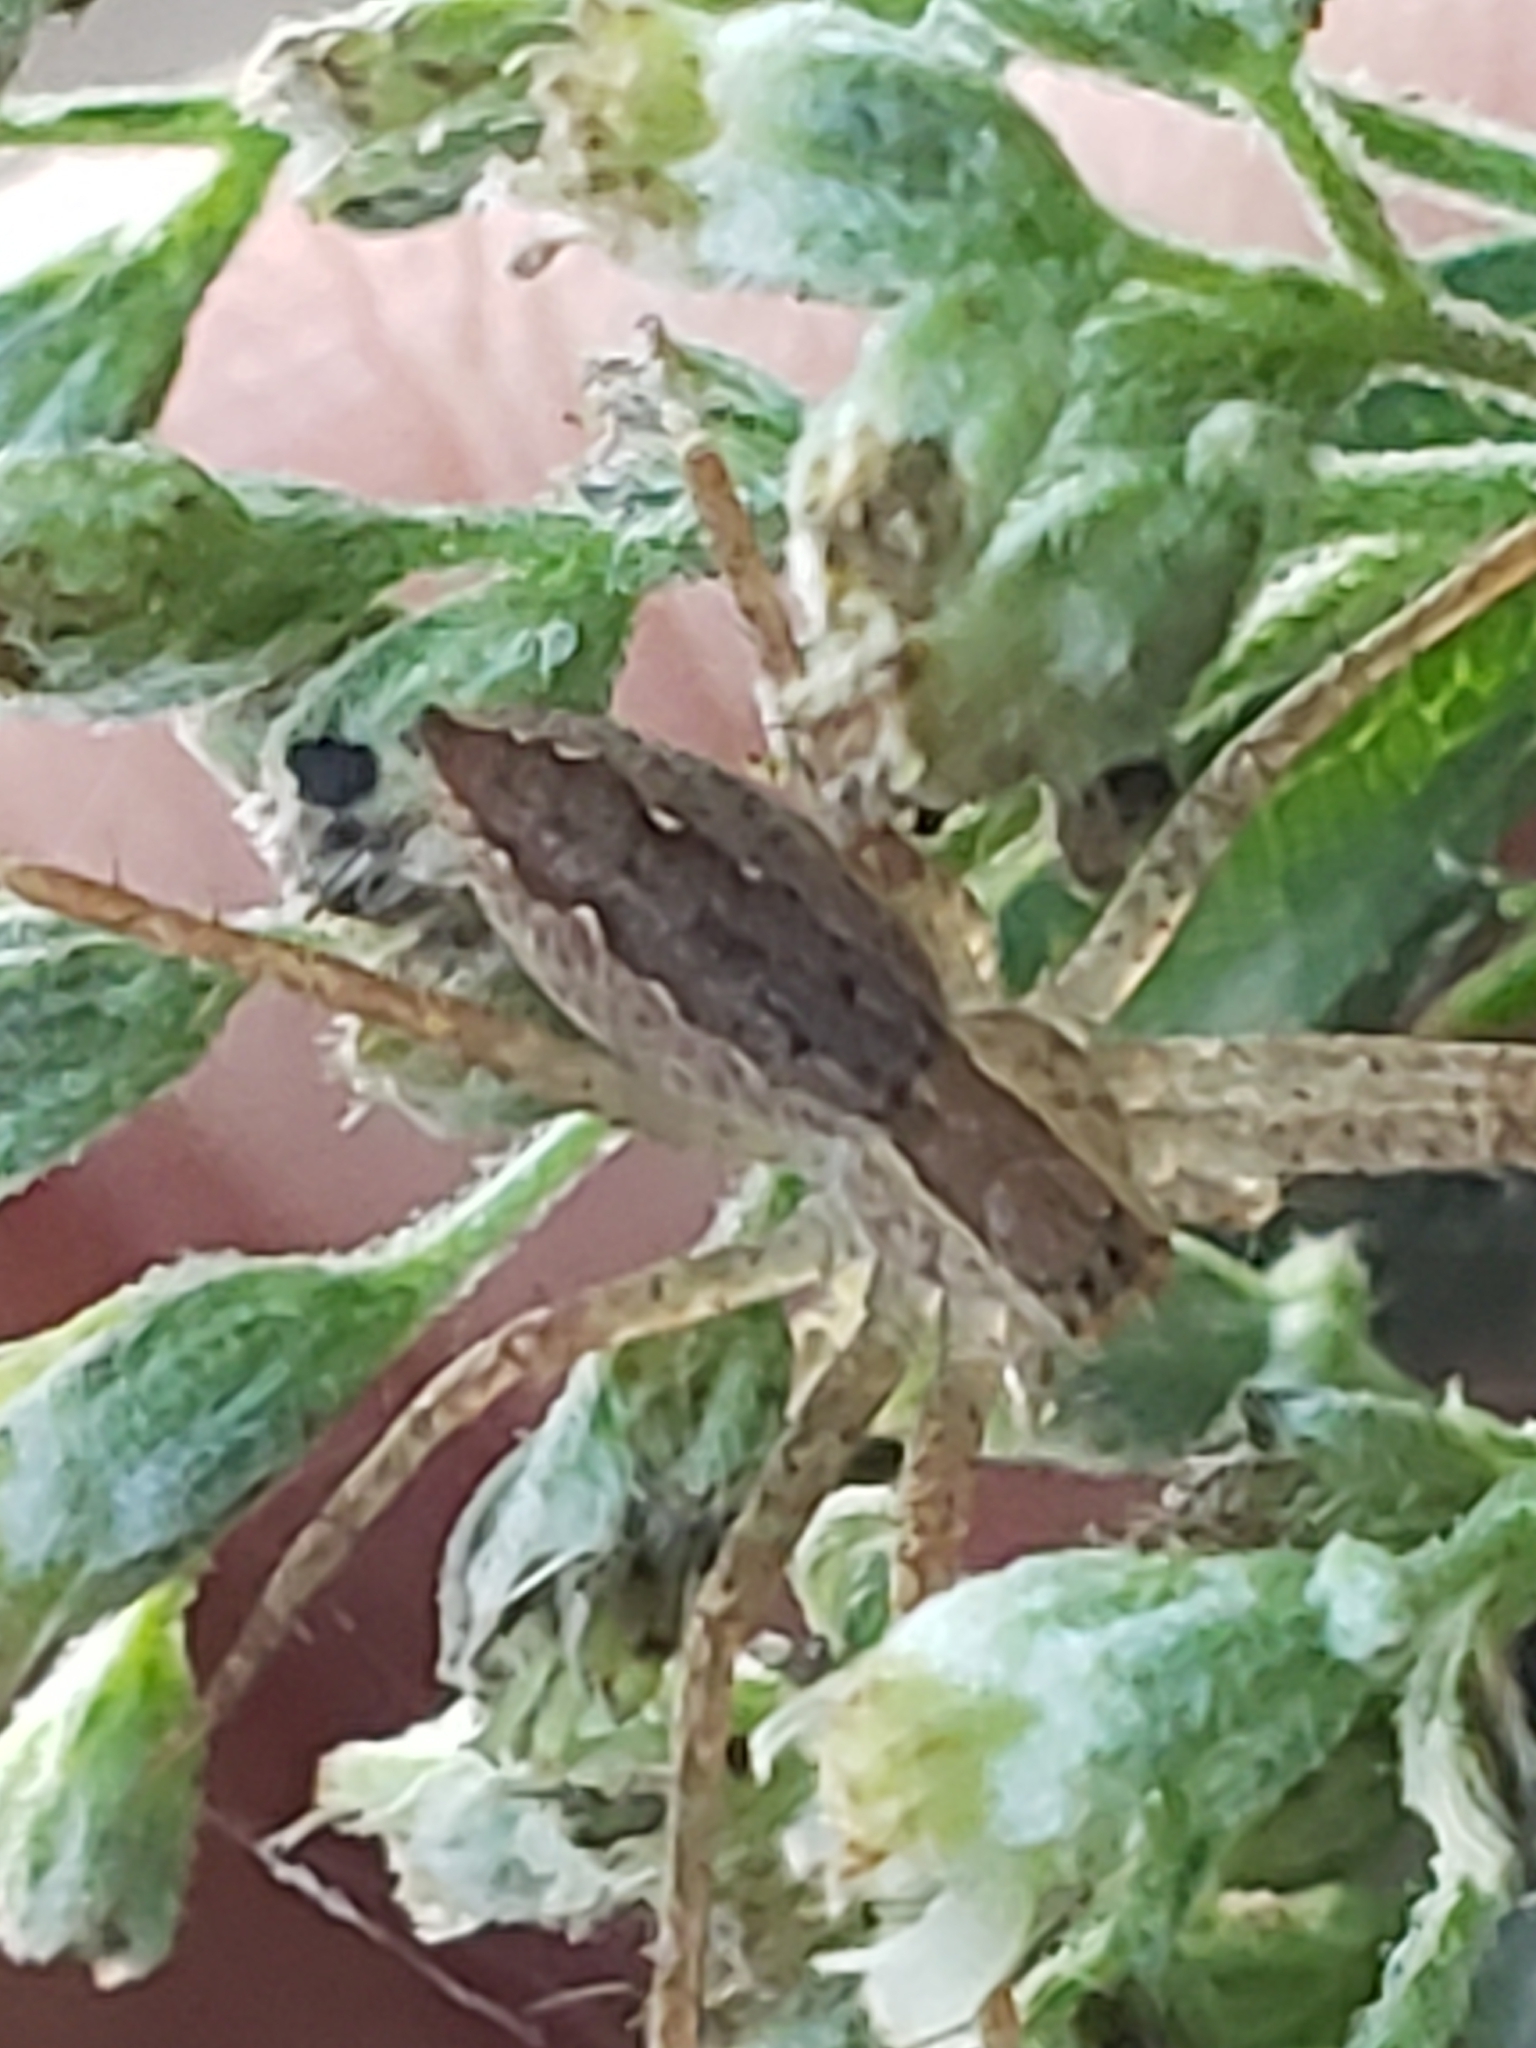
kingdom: Animalia
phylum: Arthropoda
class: Arachnida
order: Araneae
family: Pisauridae
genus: Pisaurina
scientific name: Pisaurina mira
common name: American nursery web spider
